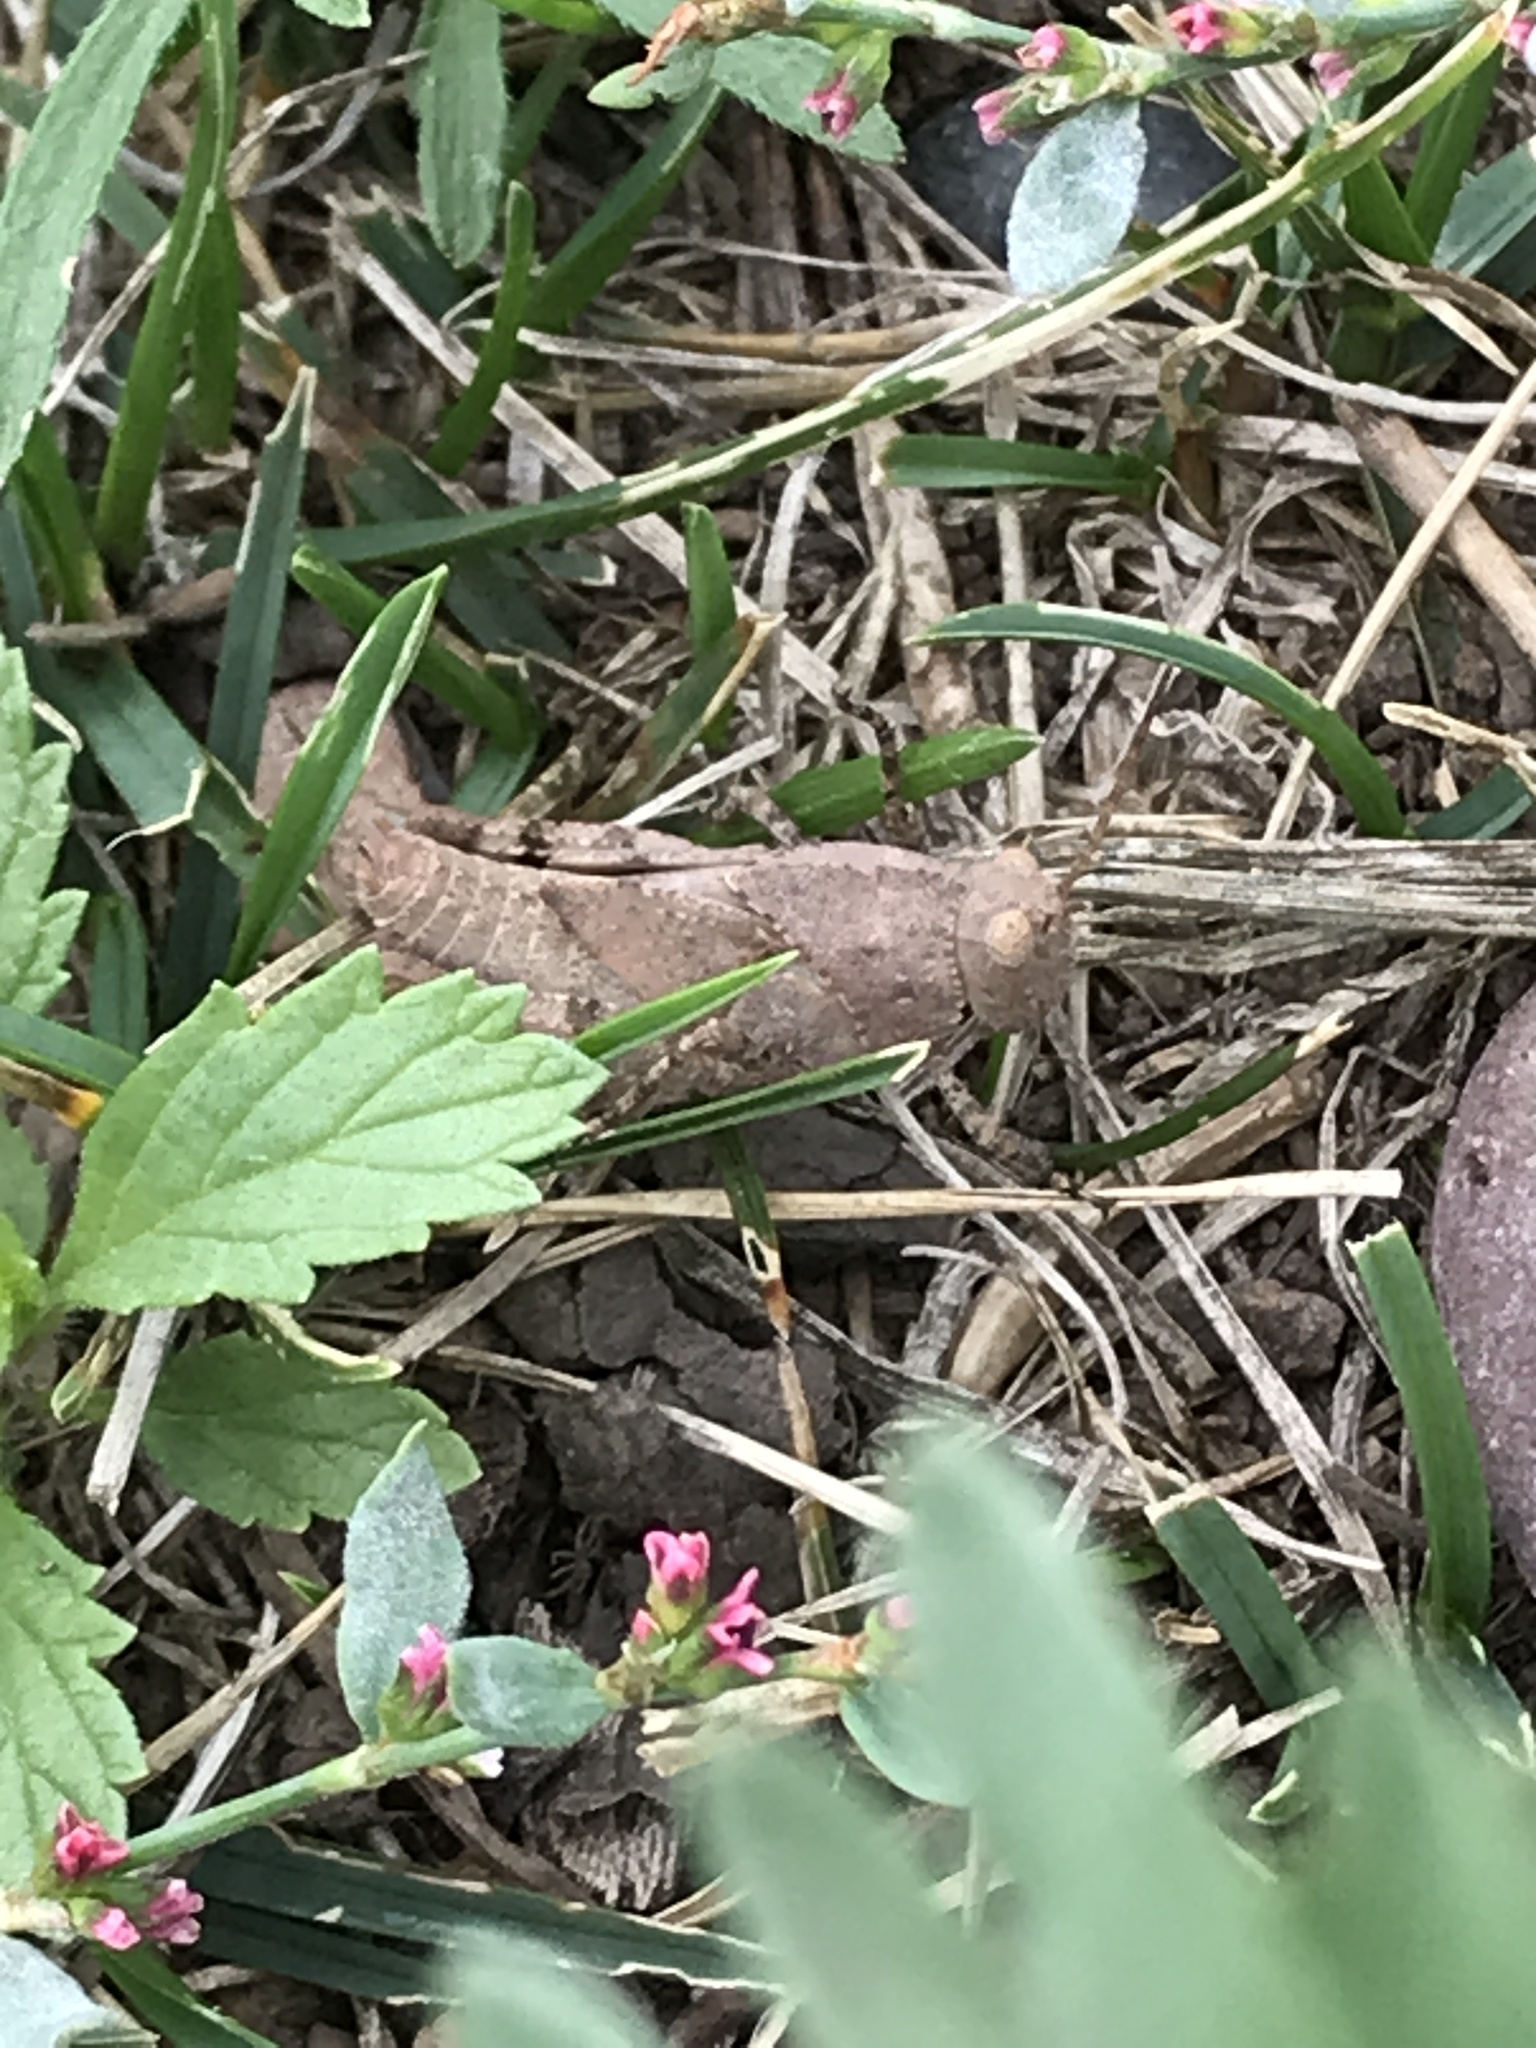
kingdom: Animalia
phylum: Arthropoda
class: Insecta
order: Orthoptera
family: Acrididae
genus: Dissosteira
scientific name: Dissosteira carolina
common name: Carolina grasshopper
